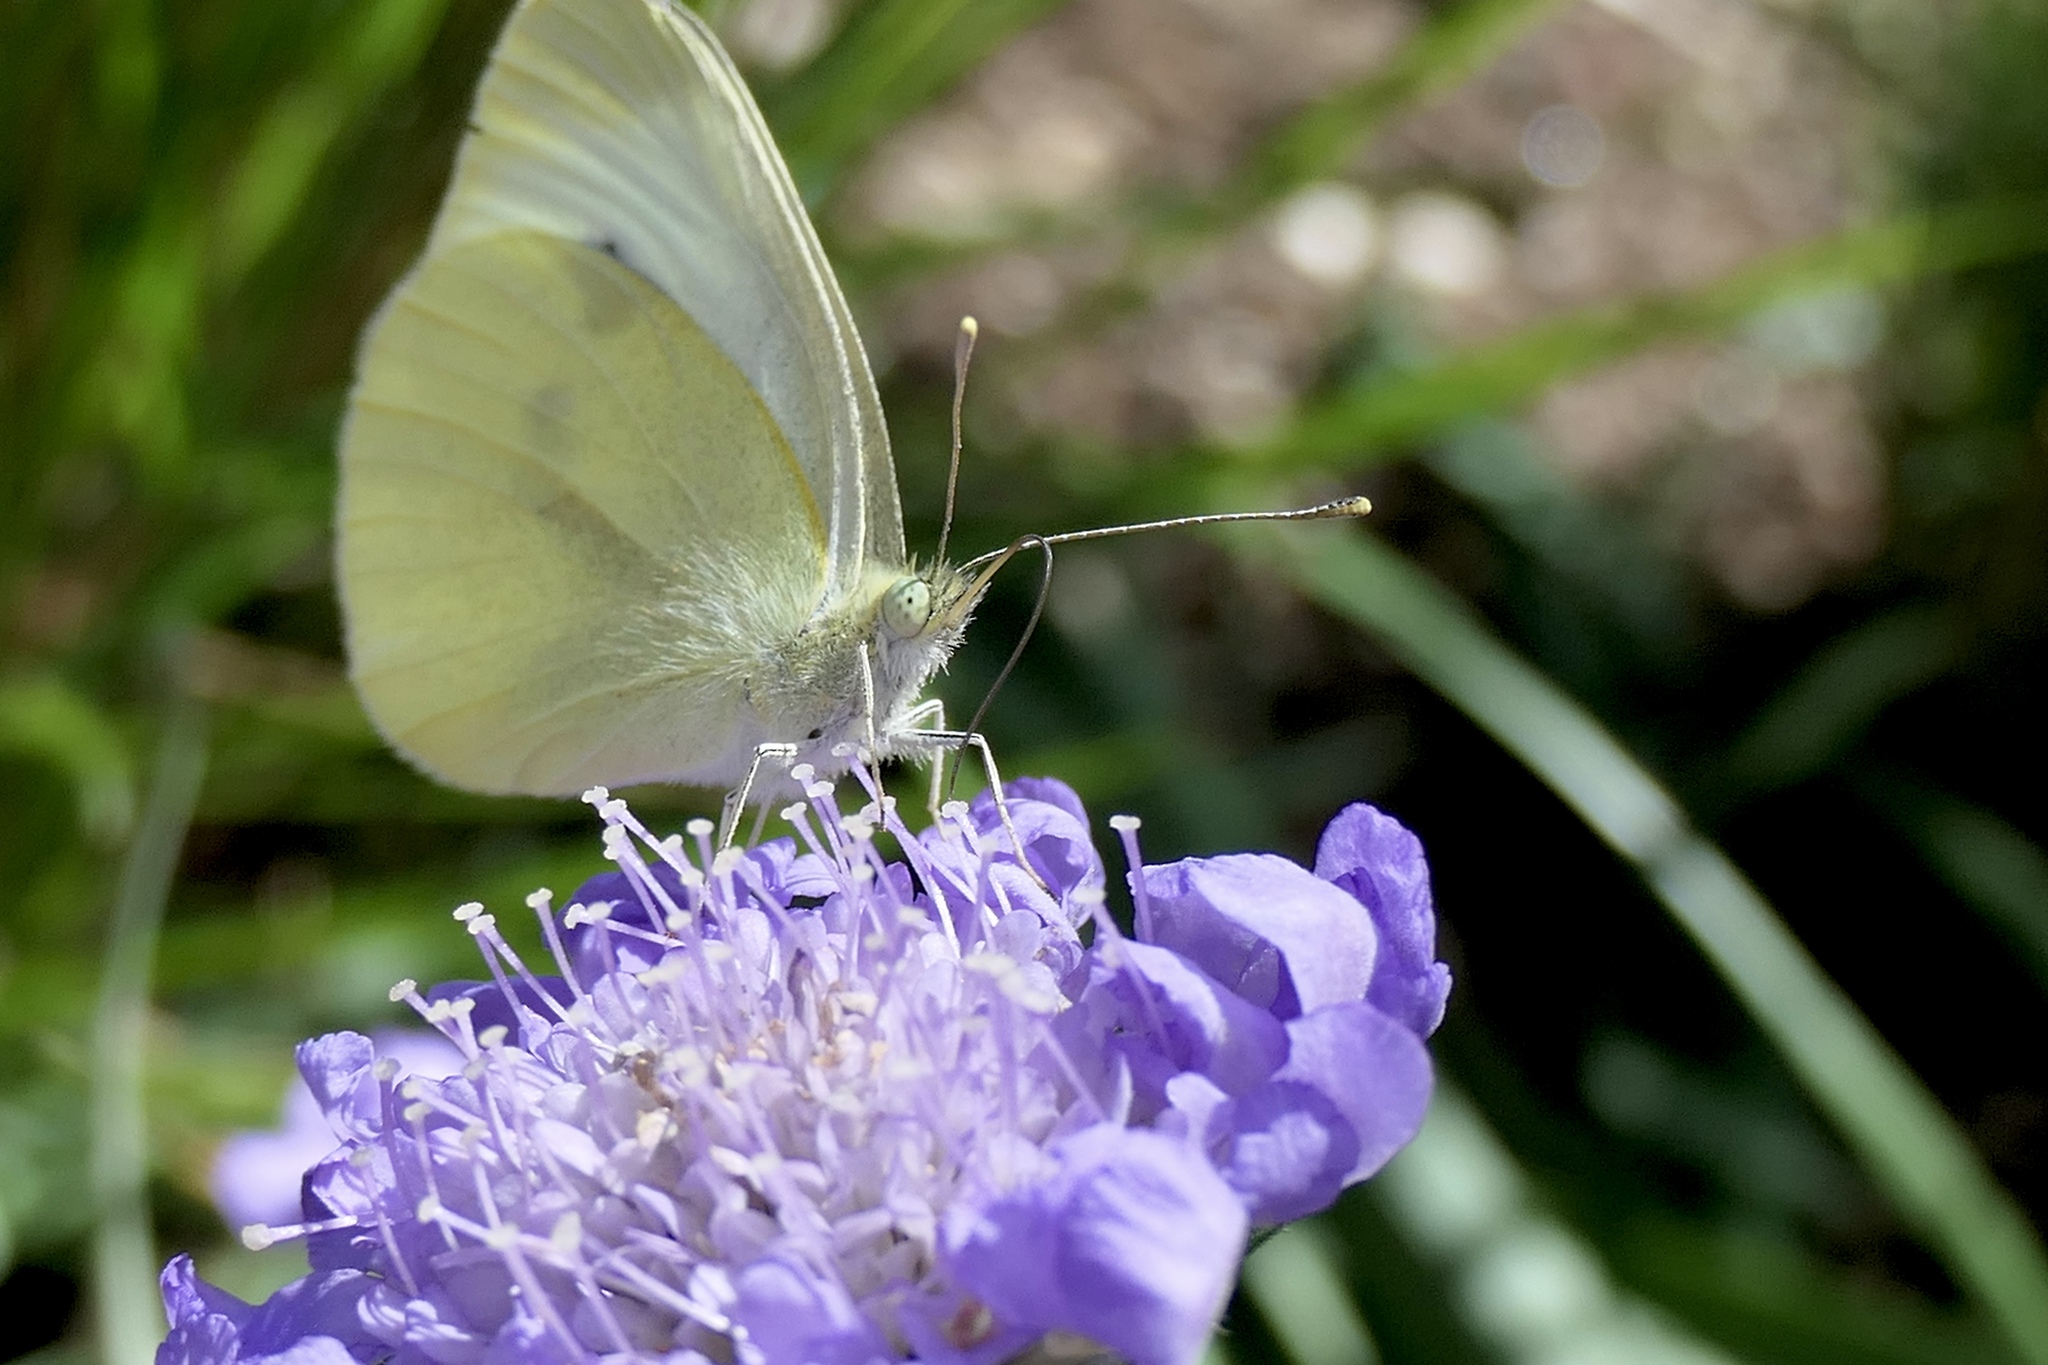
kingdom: Animalia
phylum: Arthropoda
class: Insecta
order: Lepidoptera
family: Pieridae
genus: Pieris
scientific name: Pieris rapae
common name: Small white
